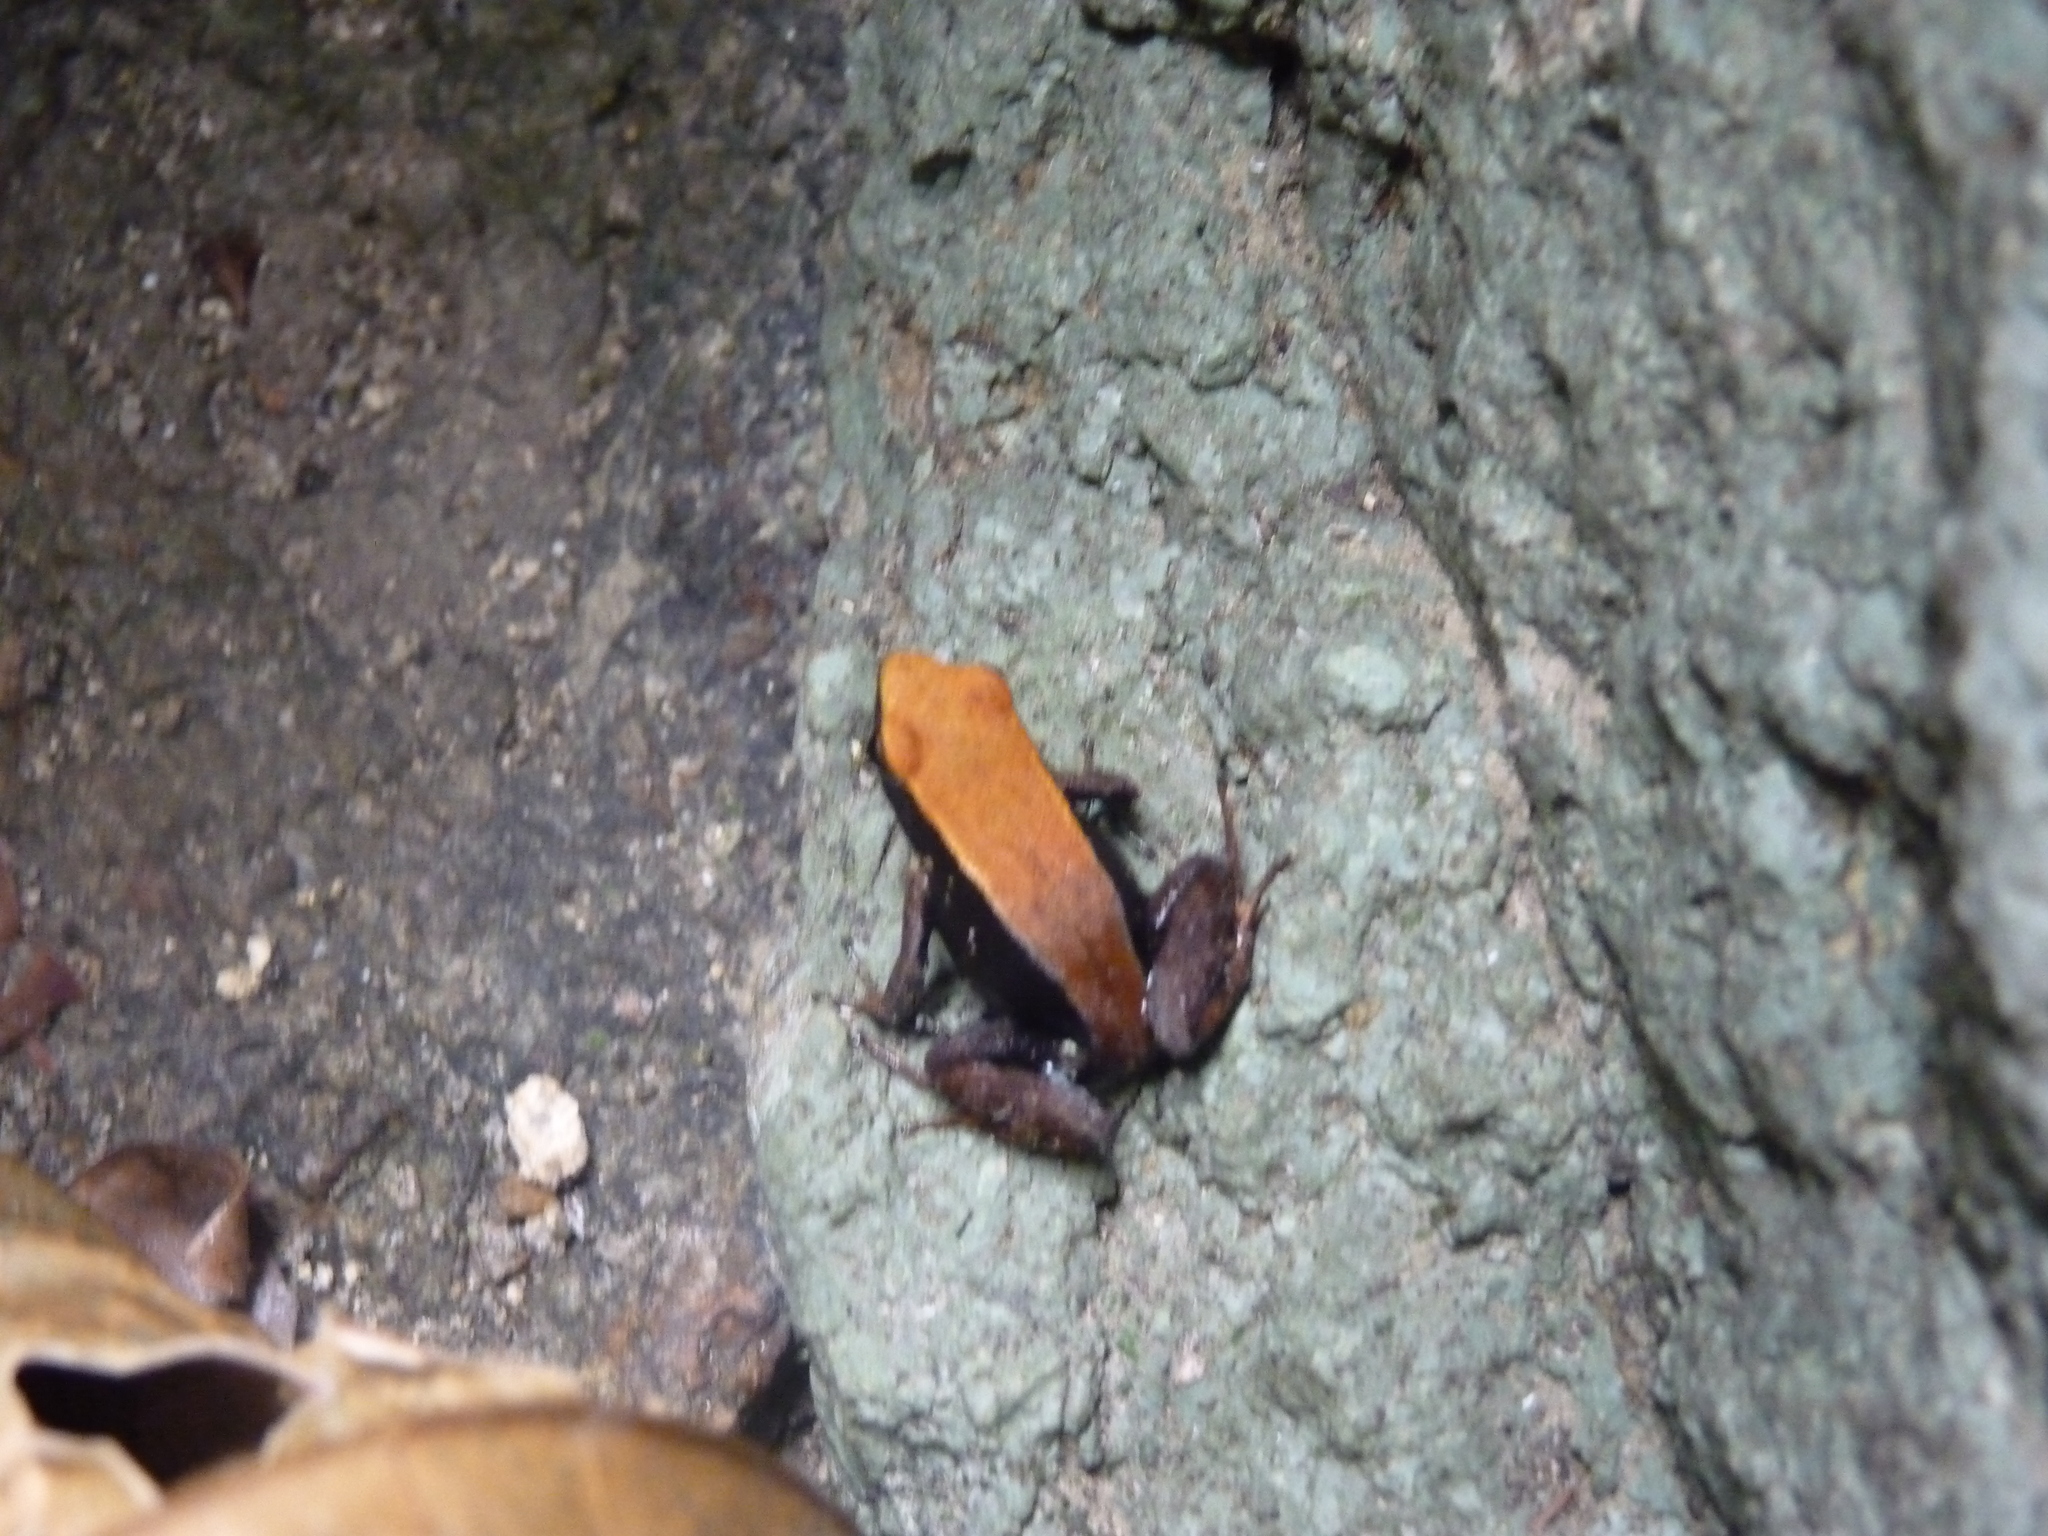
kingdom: Animalia
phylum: Chordata
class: Amphibia
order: Anura
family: Mantellidae
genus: Mantella
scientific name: Mantella ebenaui
